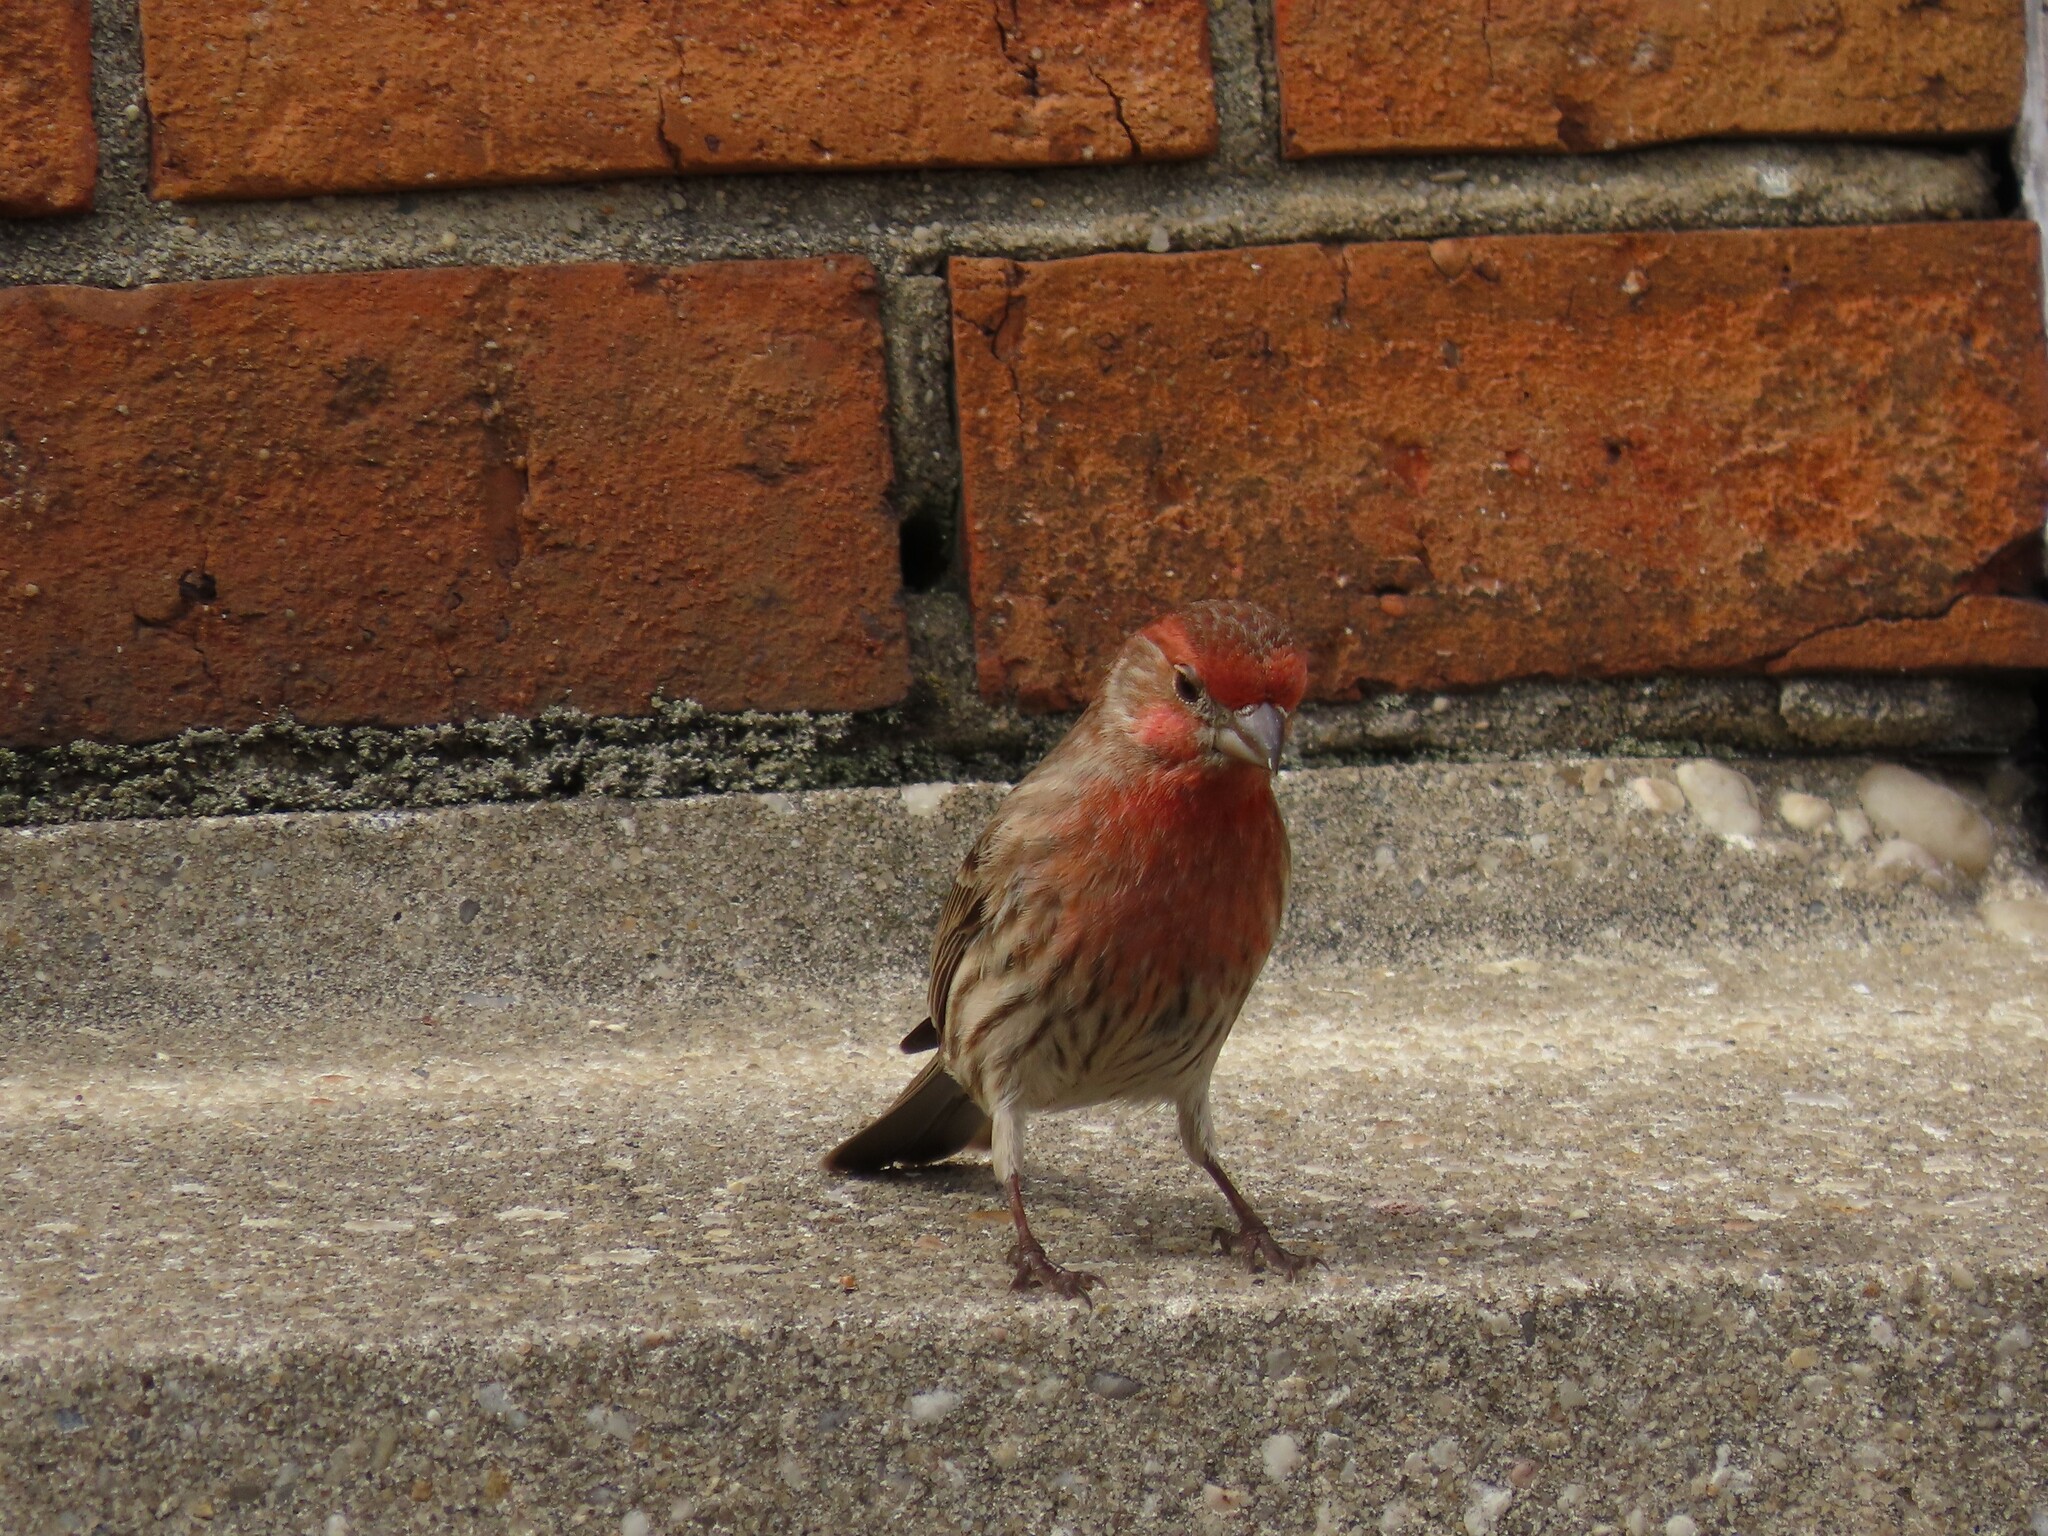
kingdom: Animalia
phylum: Chordata
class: Aves
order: Passeriformes
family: Fringillidae
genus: Haemorhous
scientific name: Haemorhous mexicanus
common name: House finch
